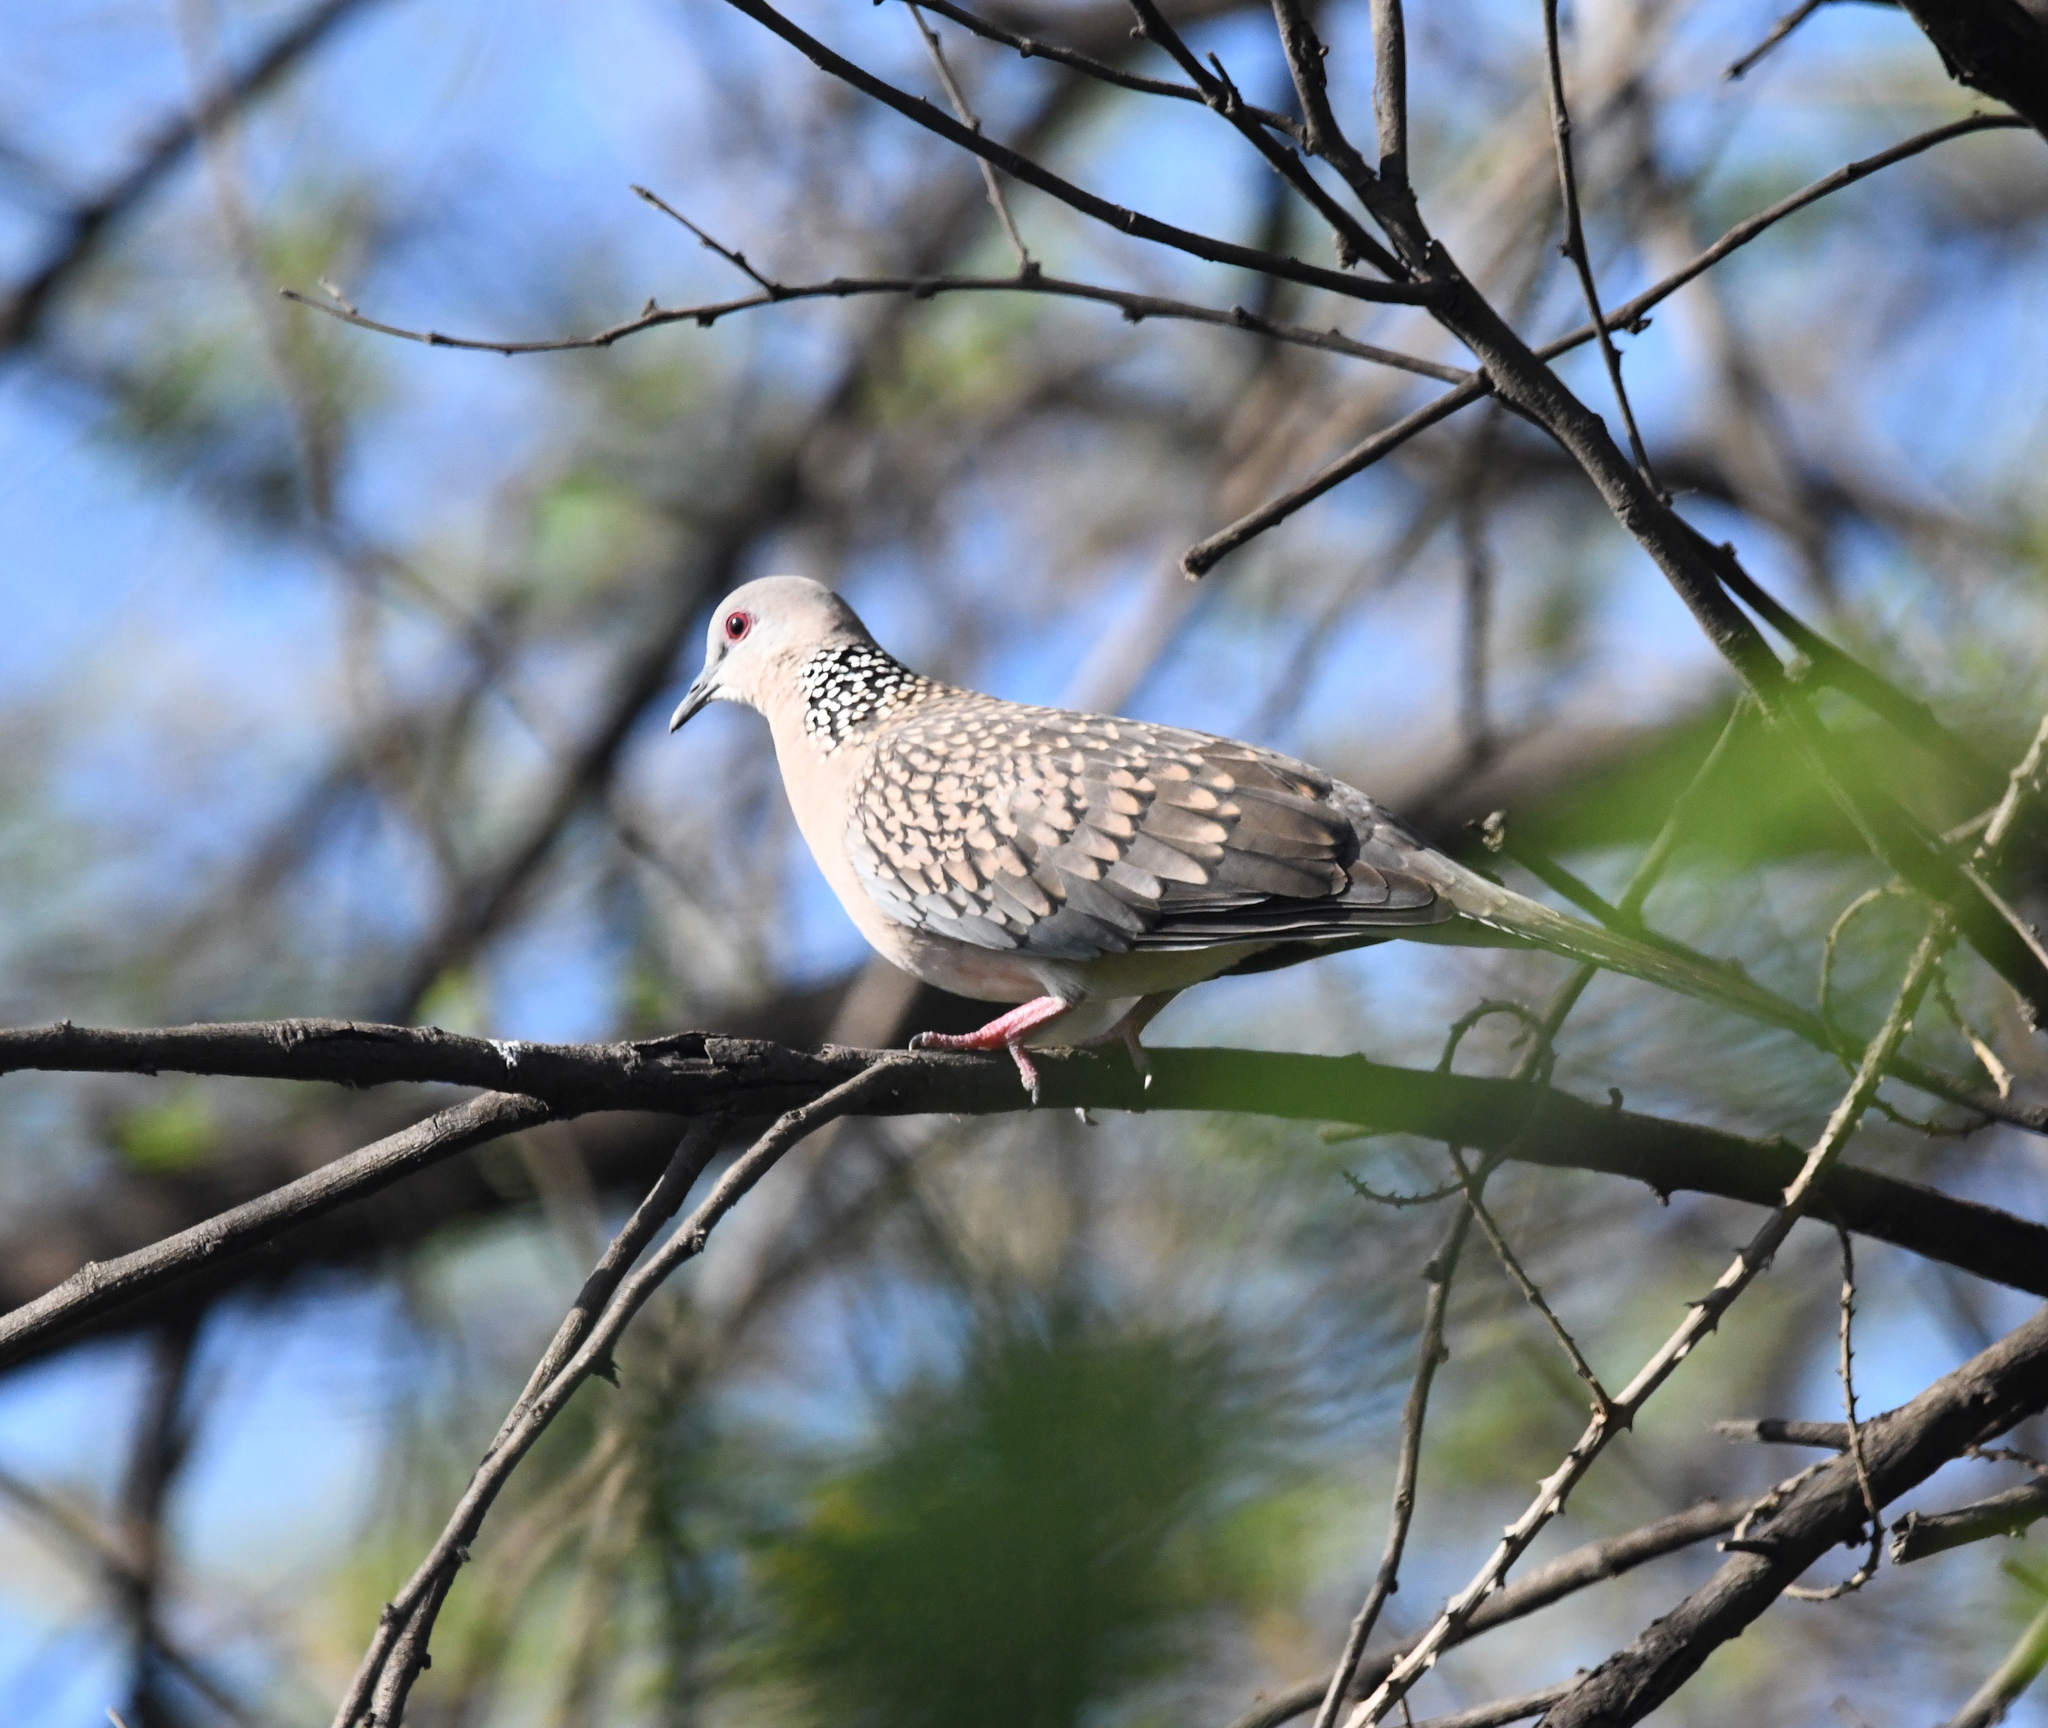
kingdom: Animalia
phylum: Chordata
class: Aves
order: Columbiformes
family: Columbidae
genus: Spilopelia
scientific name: Spilopelia chinensis
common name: Spotted dove
